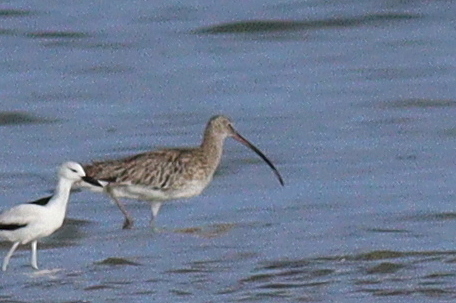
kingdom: Animalia
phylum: Chordata
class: Aves
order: Charadriiformes
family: Scolopacidae
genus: Numenius
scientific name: Numenius arquata
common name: Eurasian curlew
